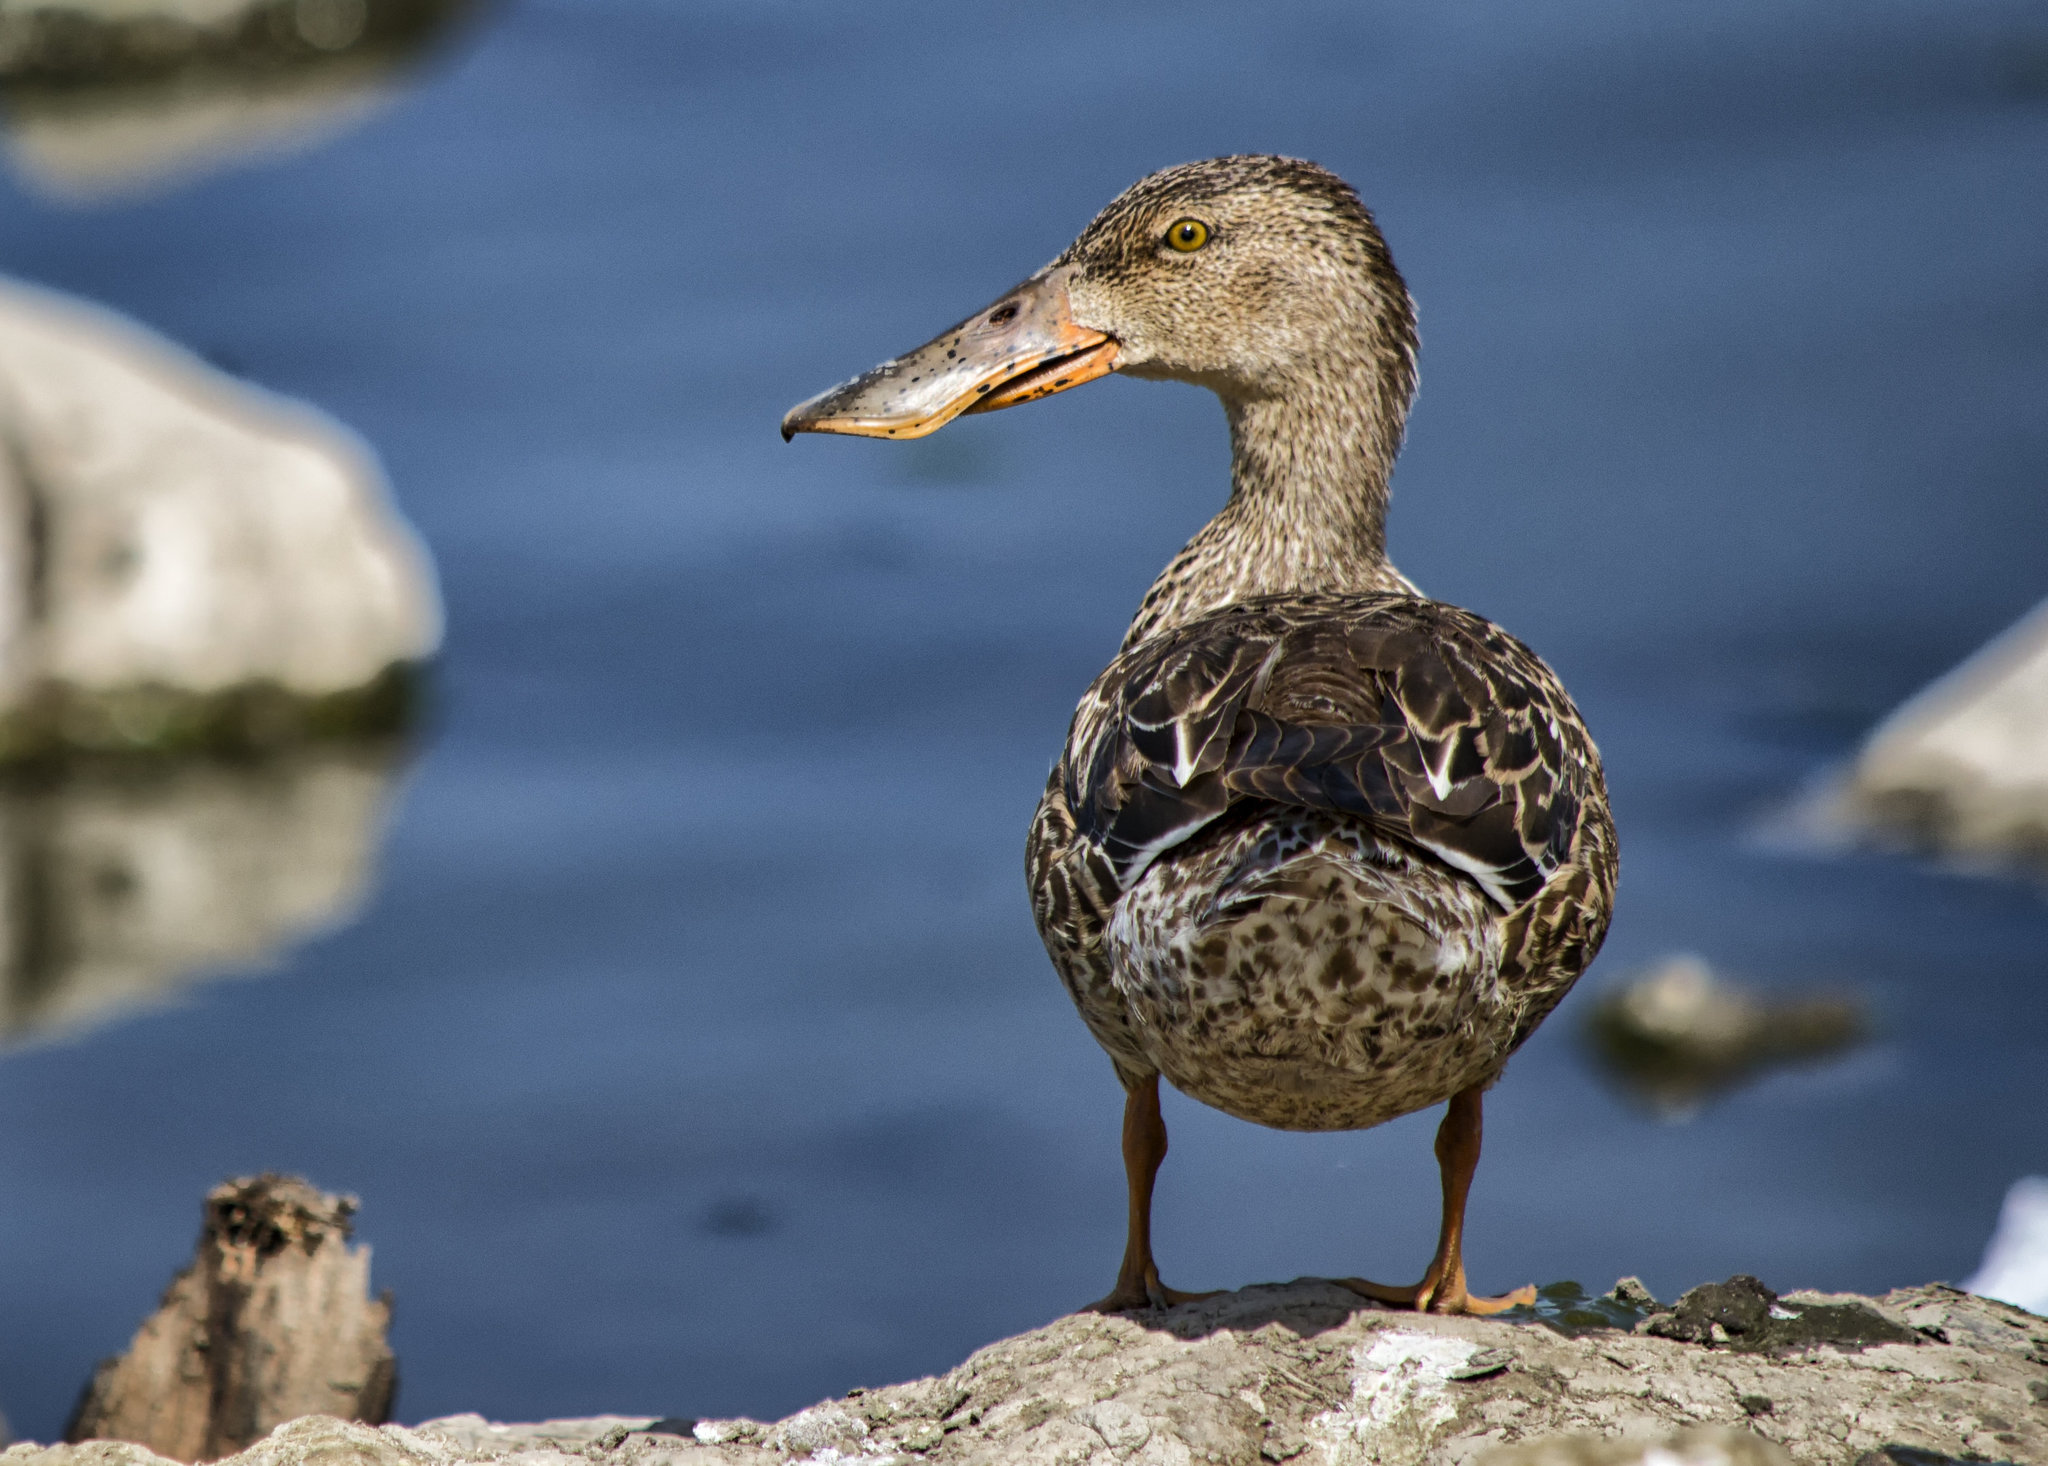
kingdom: Animalia
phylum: Chordata
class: Aves
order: Anseriformes
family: Anatidae
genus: Spatula
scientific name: Spatula clypeata
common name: Northern shoveler
